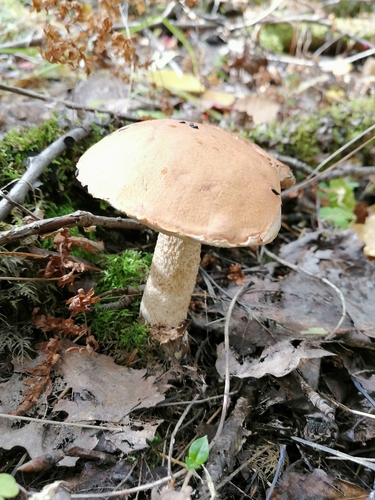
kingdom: Fungi
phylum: Basidiomycota
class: Agaricomycetes
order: Boletales
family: Boletaceae
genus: Leccinum
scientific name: Leccinum
